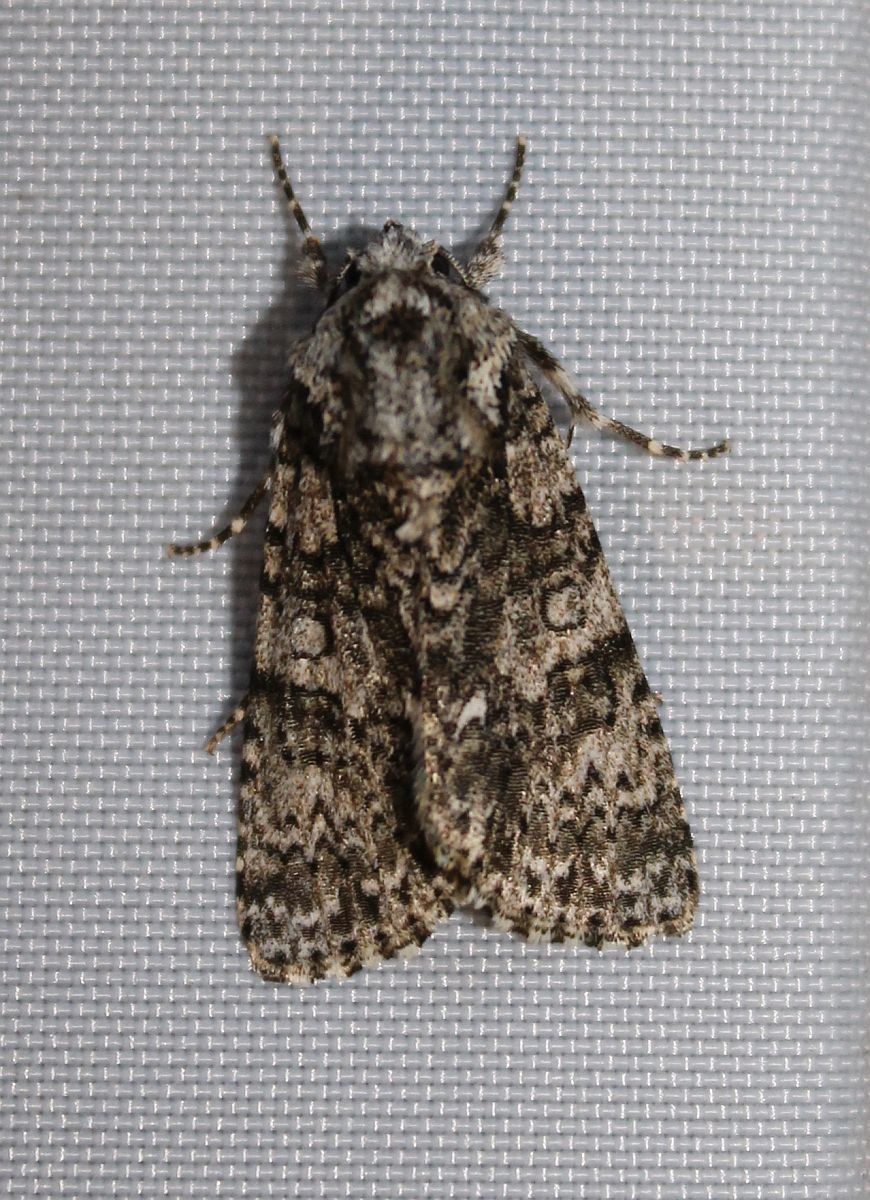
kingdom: Animalia
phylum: Arthropoda
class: Insecta
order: Lepidoptera
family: Noctuidae
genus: Acronicta
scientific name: Acronicta rumicis
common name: Knot grass
